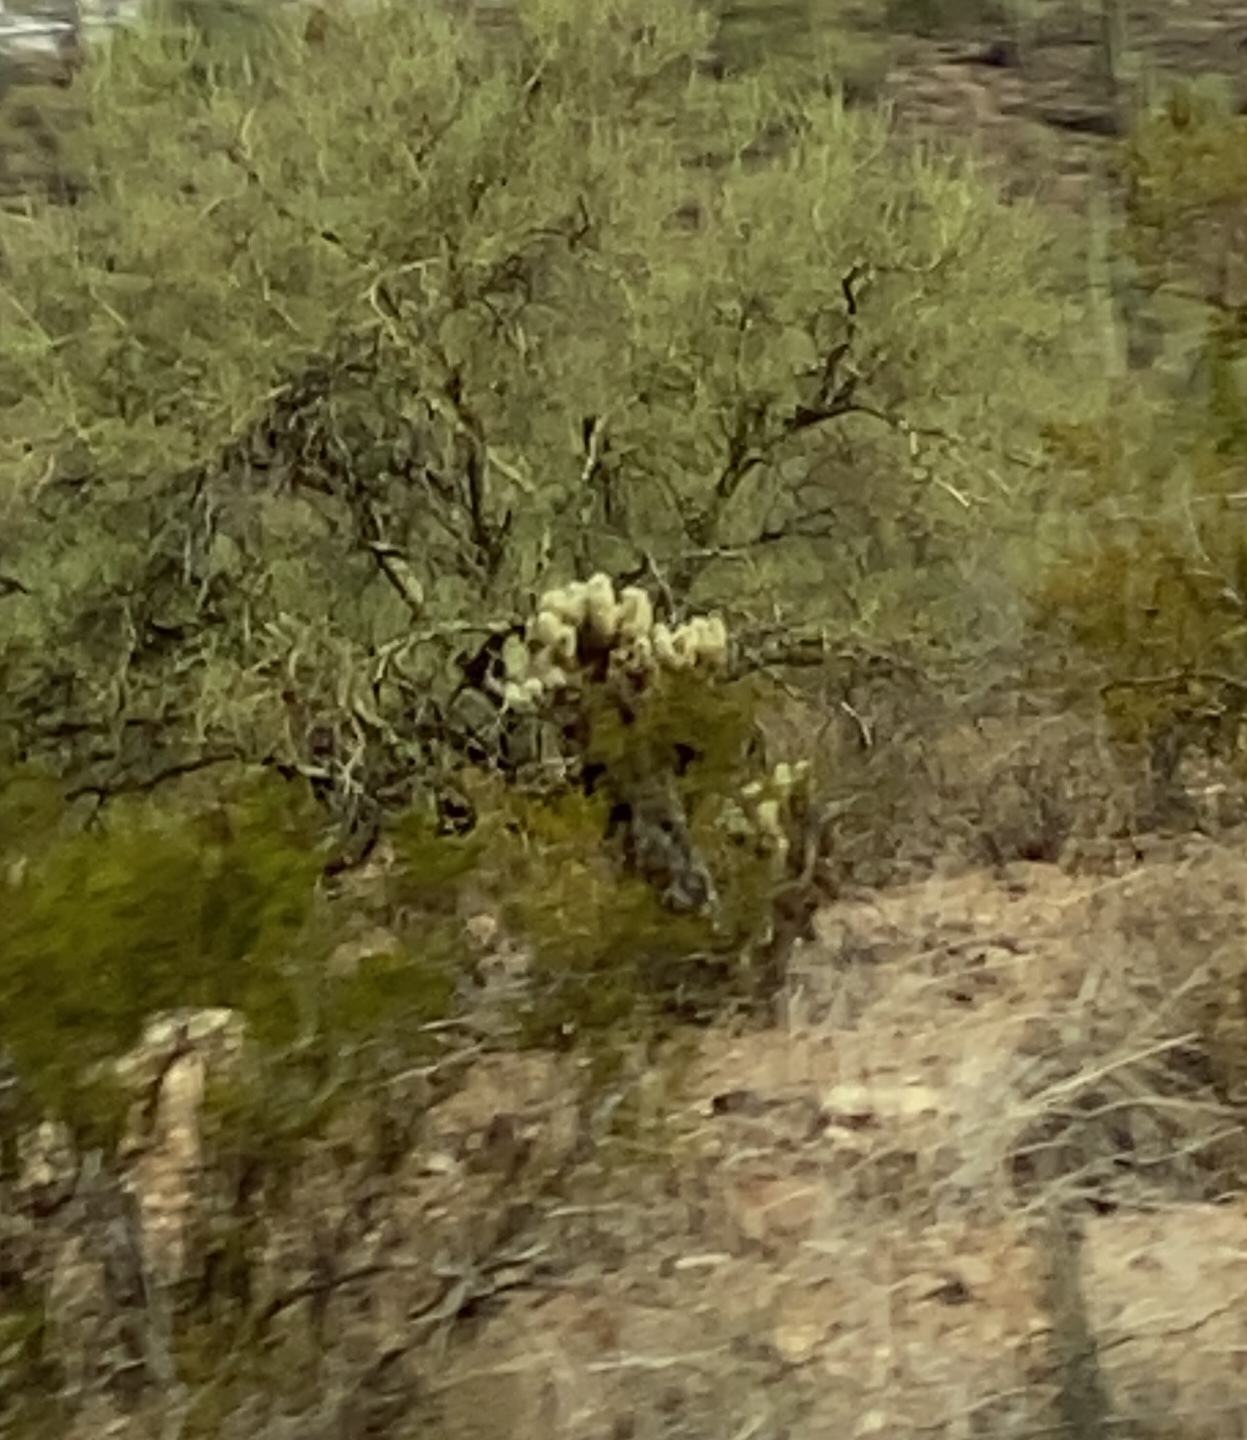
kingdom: Plantae
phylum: Tracheophyta
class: Magnoliopsida
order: Caryophyllales
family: Cactaceae
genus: Cylindropuntia
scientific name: Cylindropuntia fosbergii
